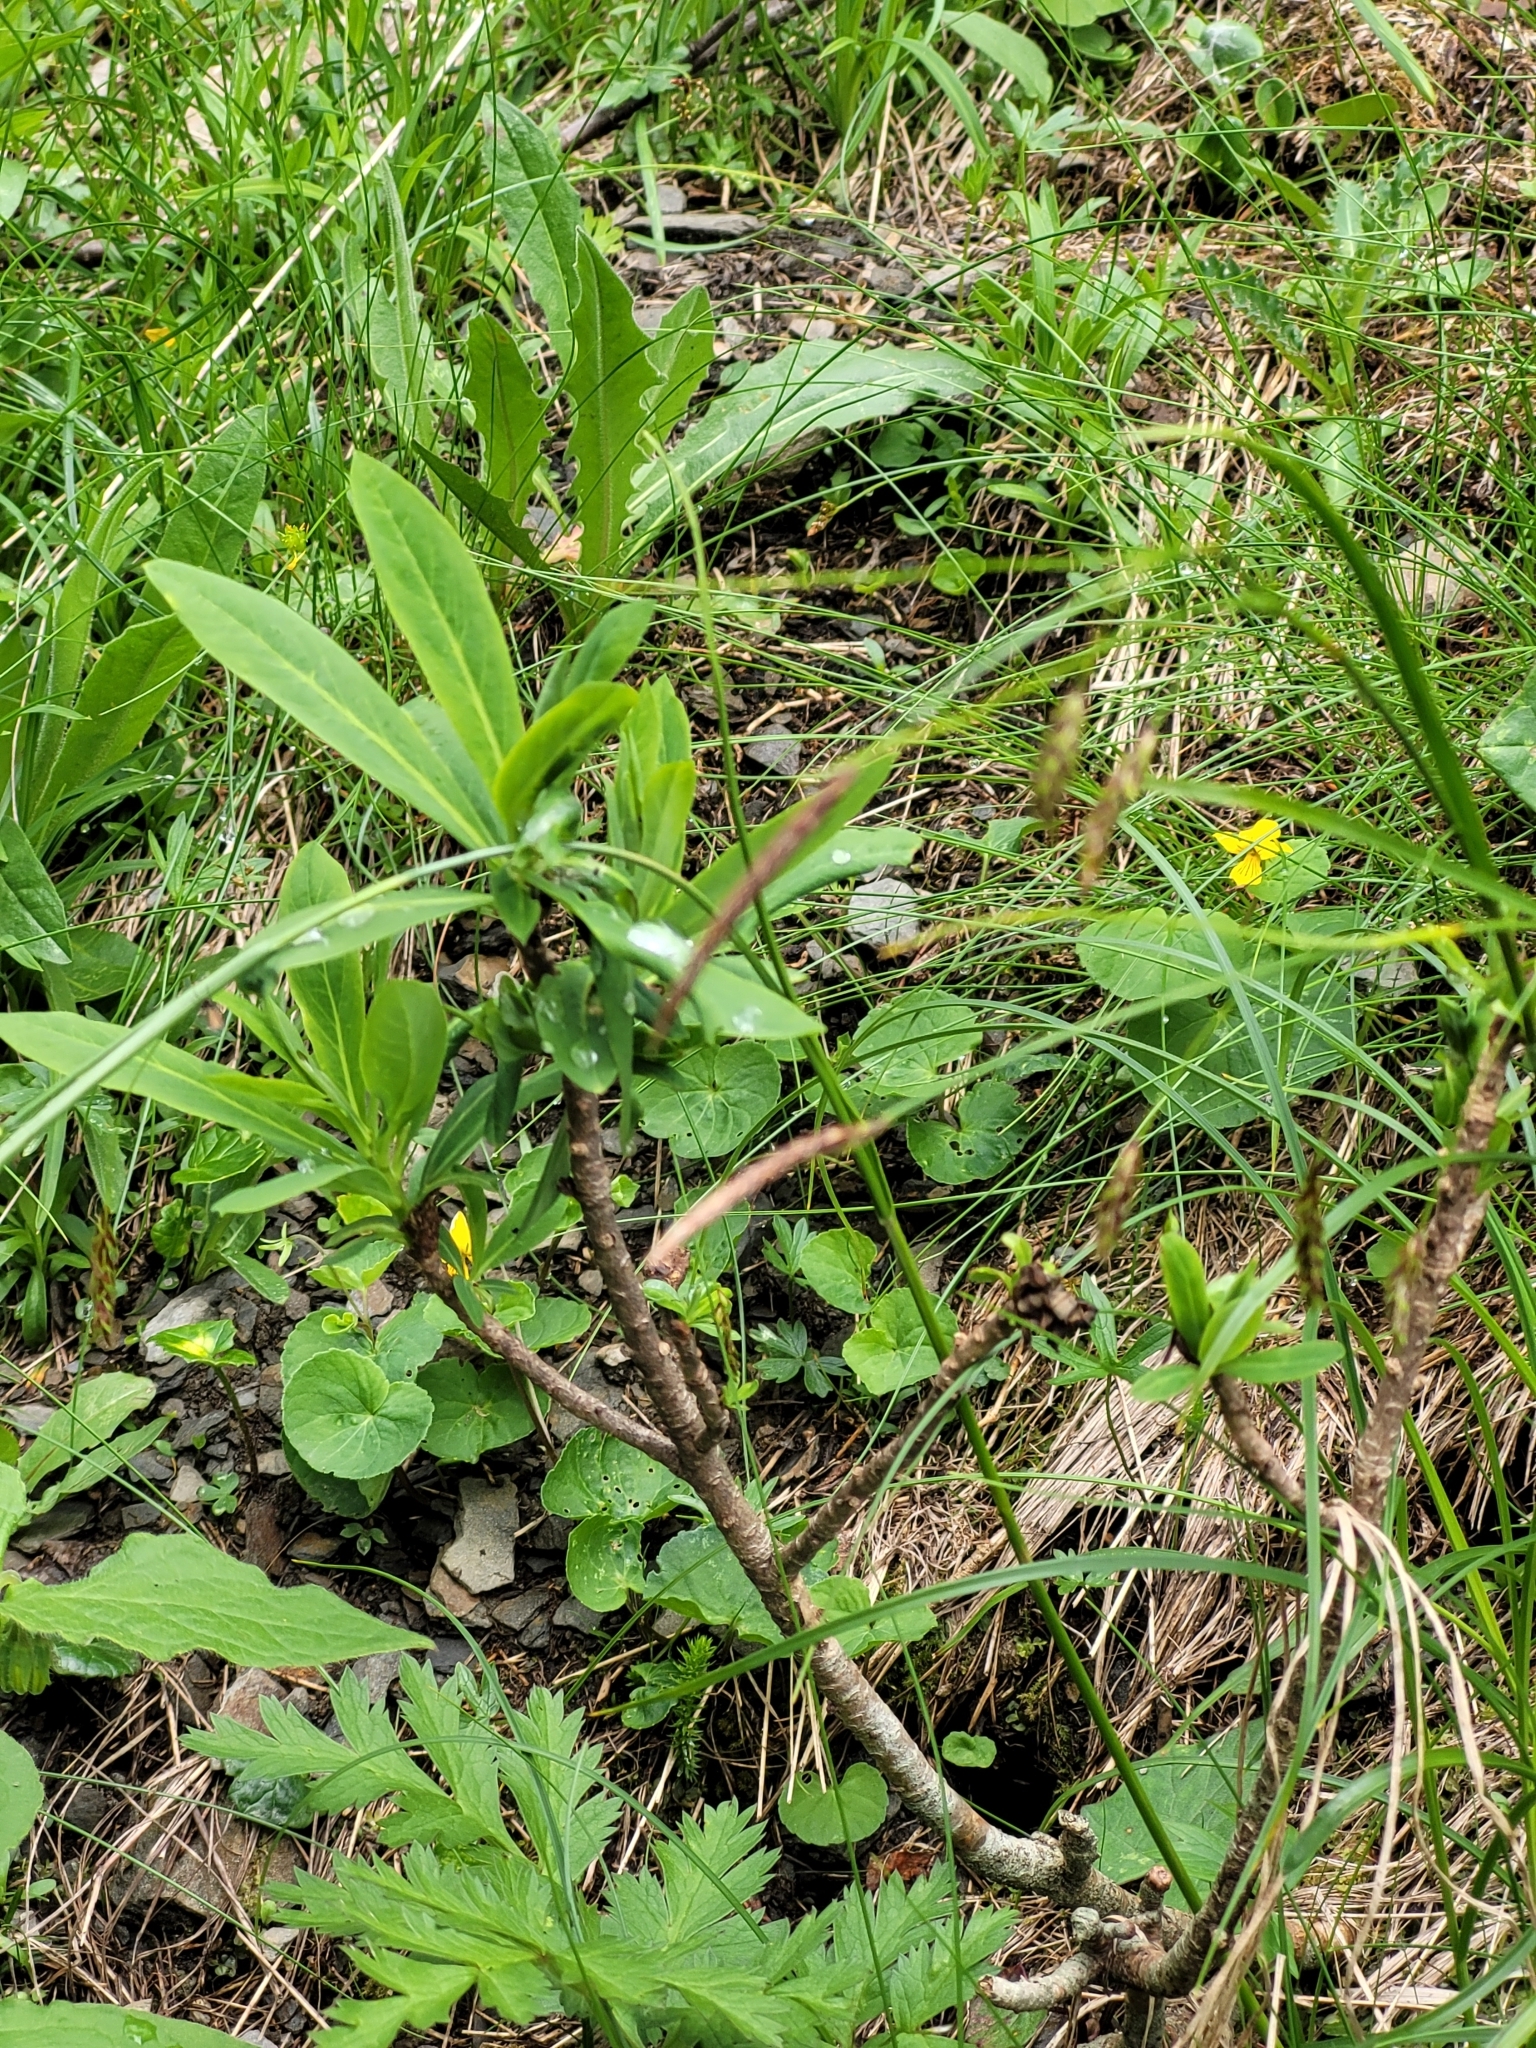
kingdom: Plantae
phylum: Tracheophyta
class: Magnoliopsida
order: Malvales
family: Thymelaeaceae
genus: Daphne
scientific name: Daphne mezereum
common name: Mezereon
